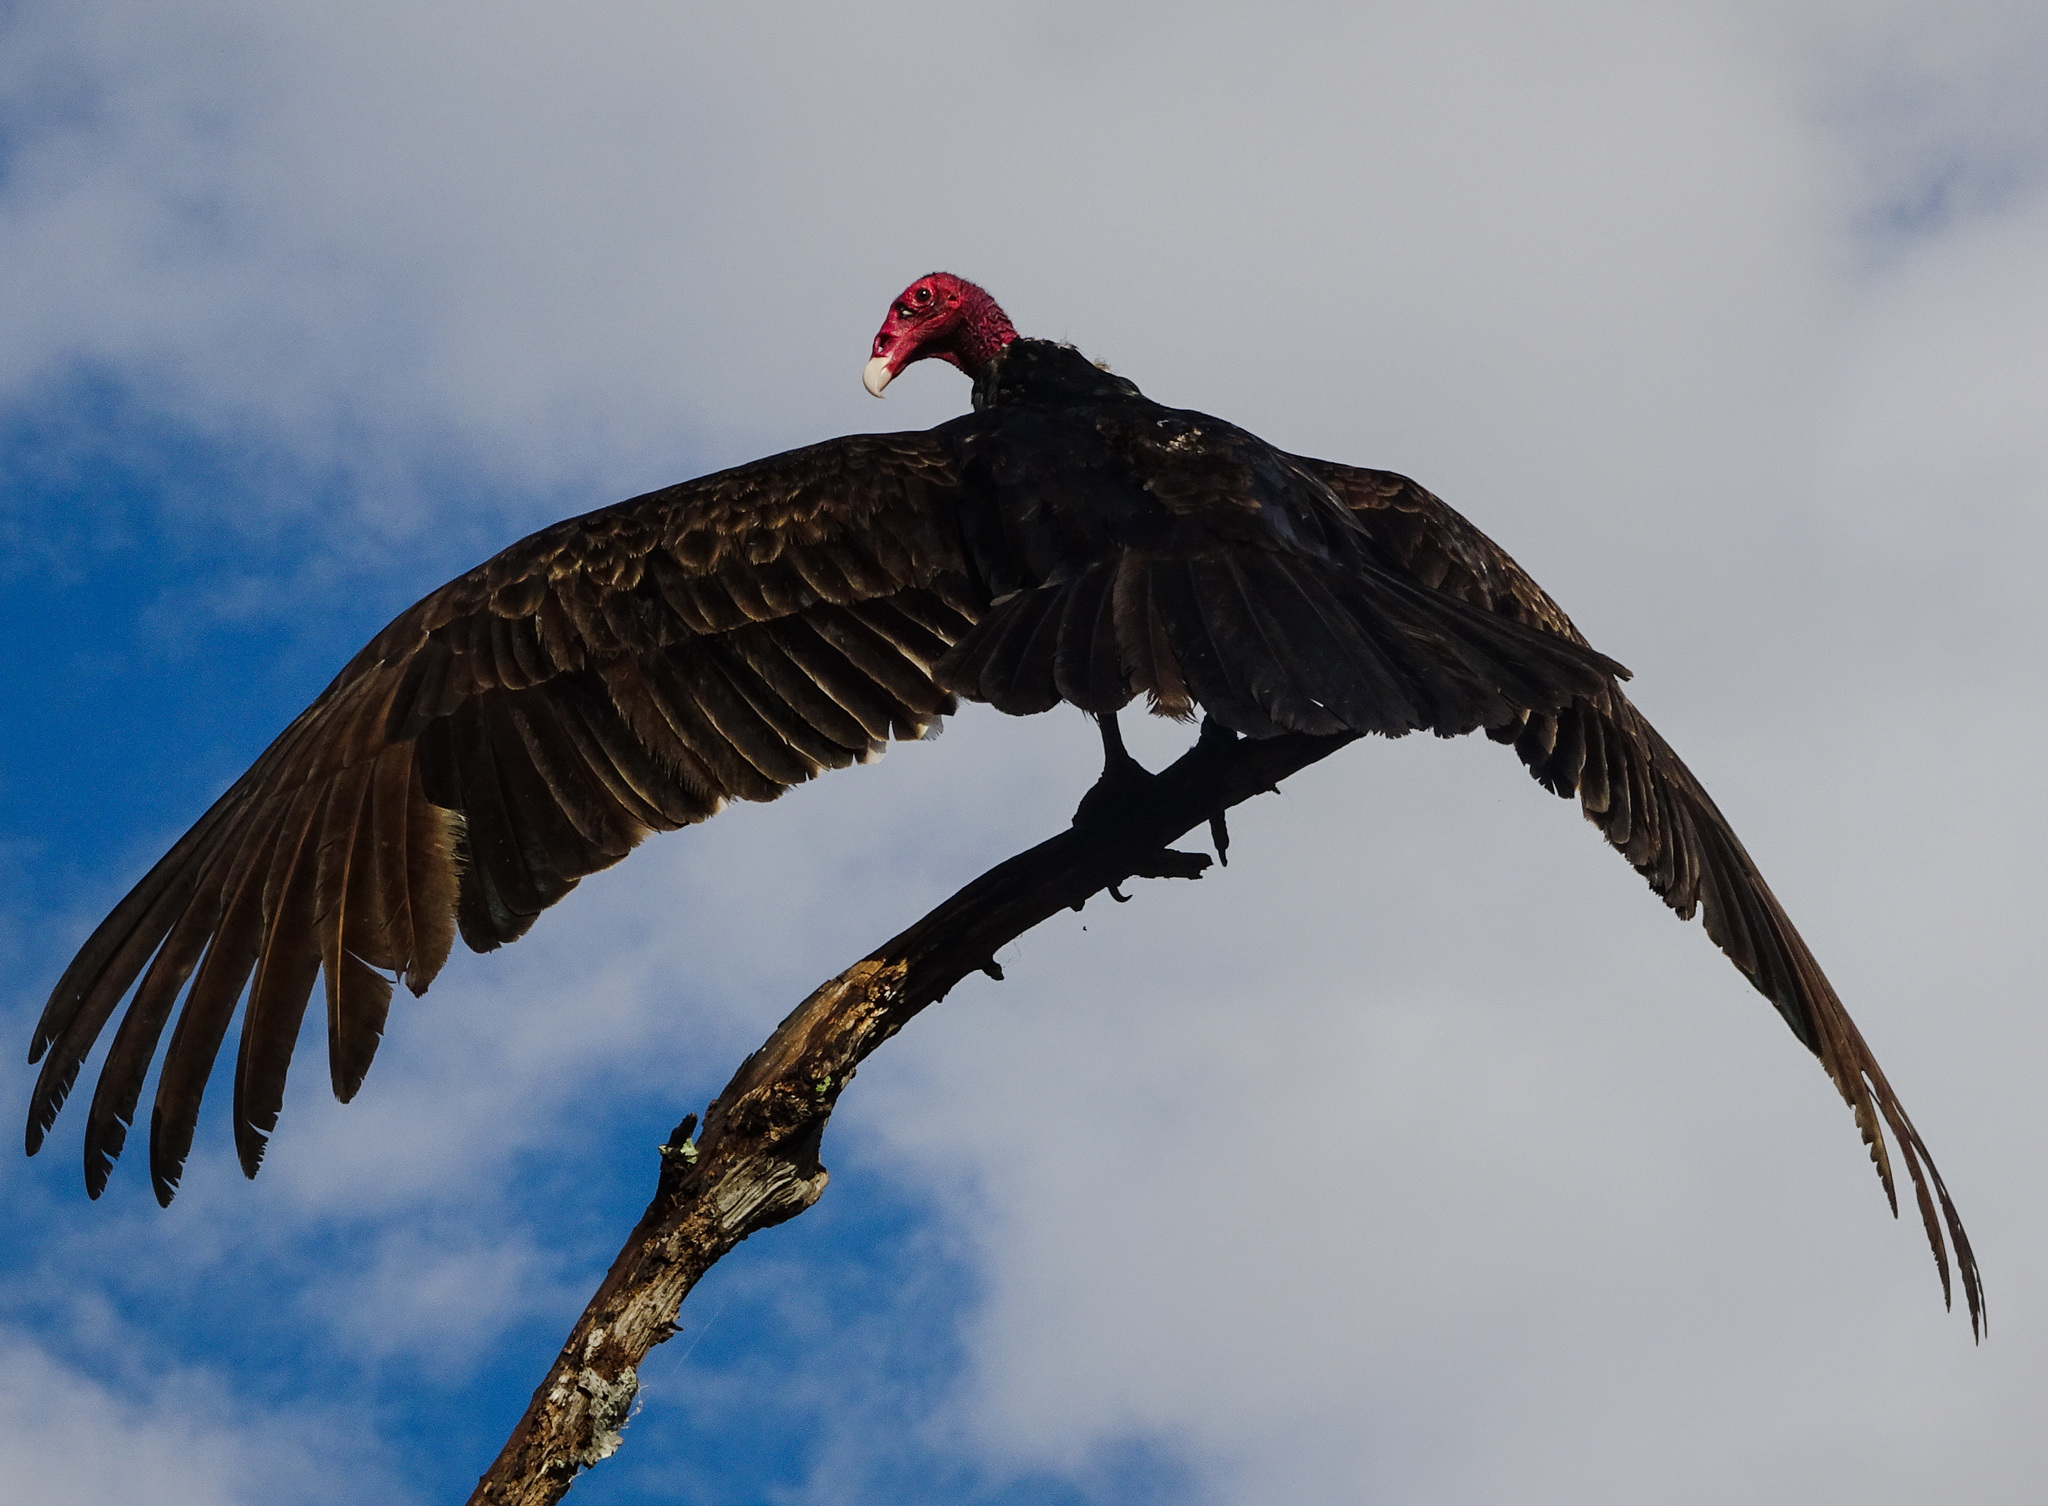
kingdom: Animalia
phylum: Chordata
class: Aves
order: Accipitriformes
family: Cathartidae
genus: Cathartes
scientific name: Cathartes aura
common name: Turkey vulture
